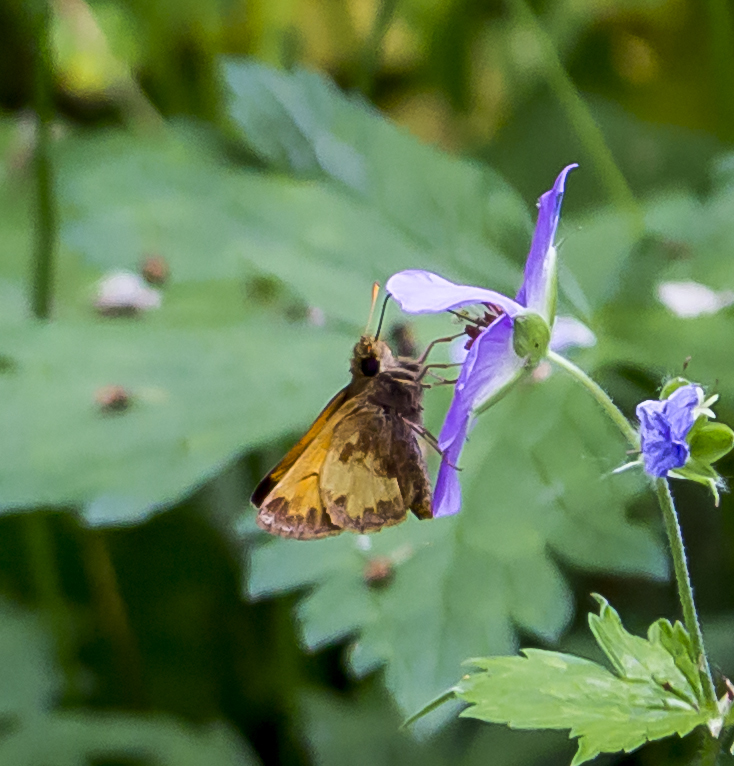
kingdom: Animalia
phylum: Arthropoda
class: Insecta
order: Lepidoptera
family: Hesperiidae
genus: Lon
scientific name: Lon hobomok
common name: Hobomok skipper
